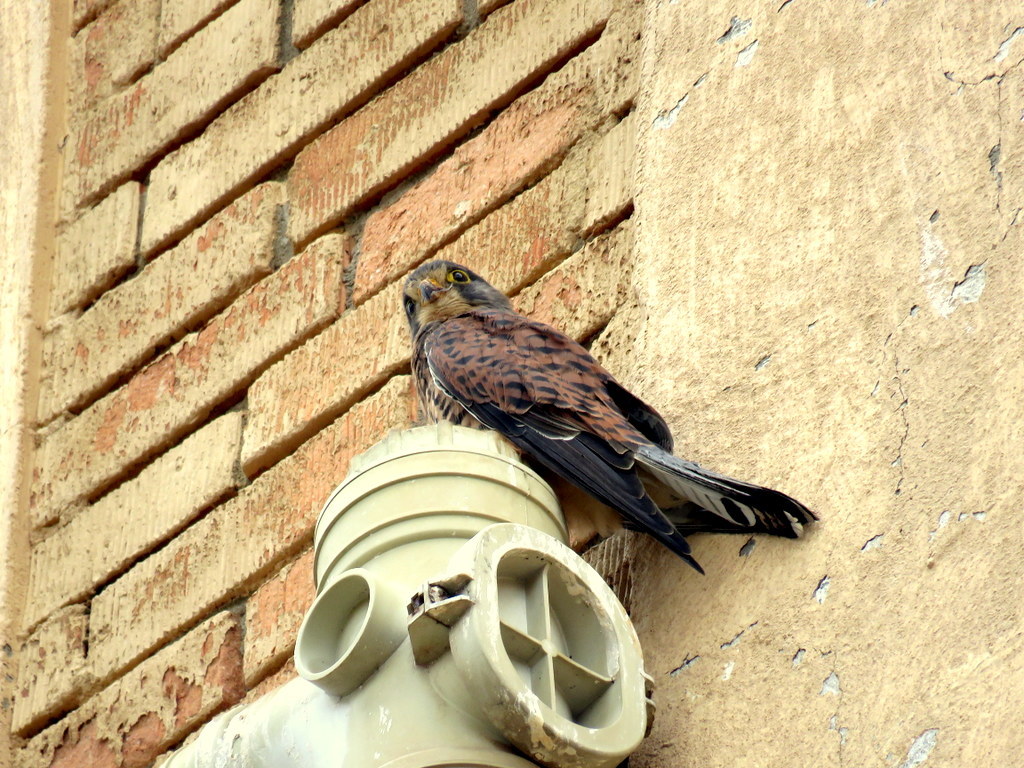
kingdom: Animalia
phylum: Chordata
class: Aves
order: Falconiformes
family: Falconidae
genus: Falco
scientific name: Falco tinnunculus
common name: Common kestrel
